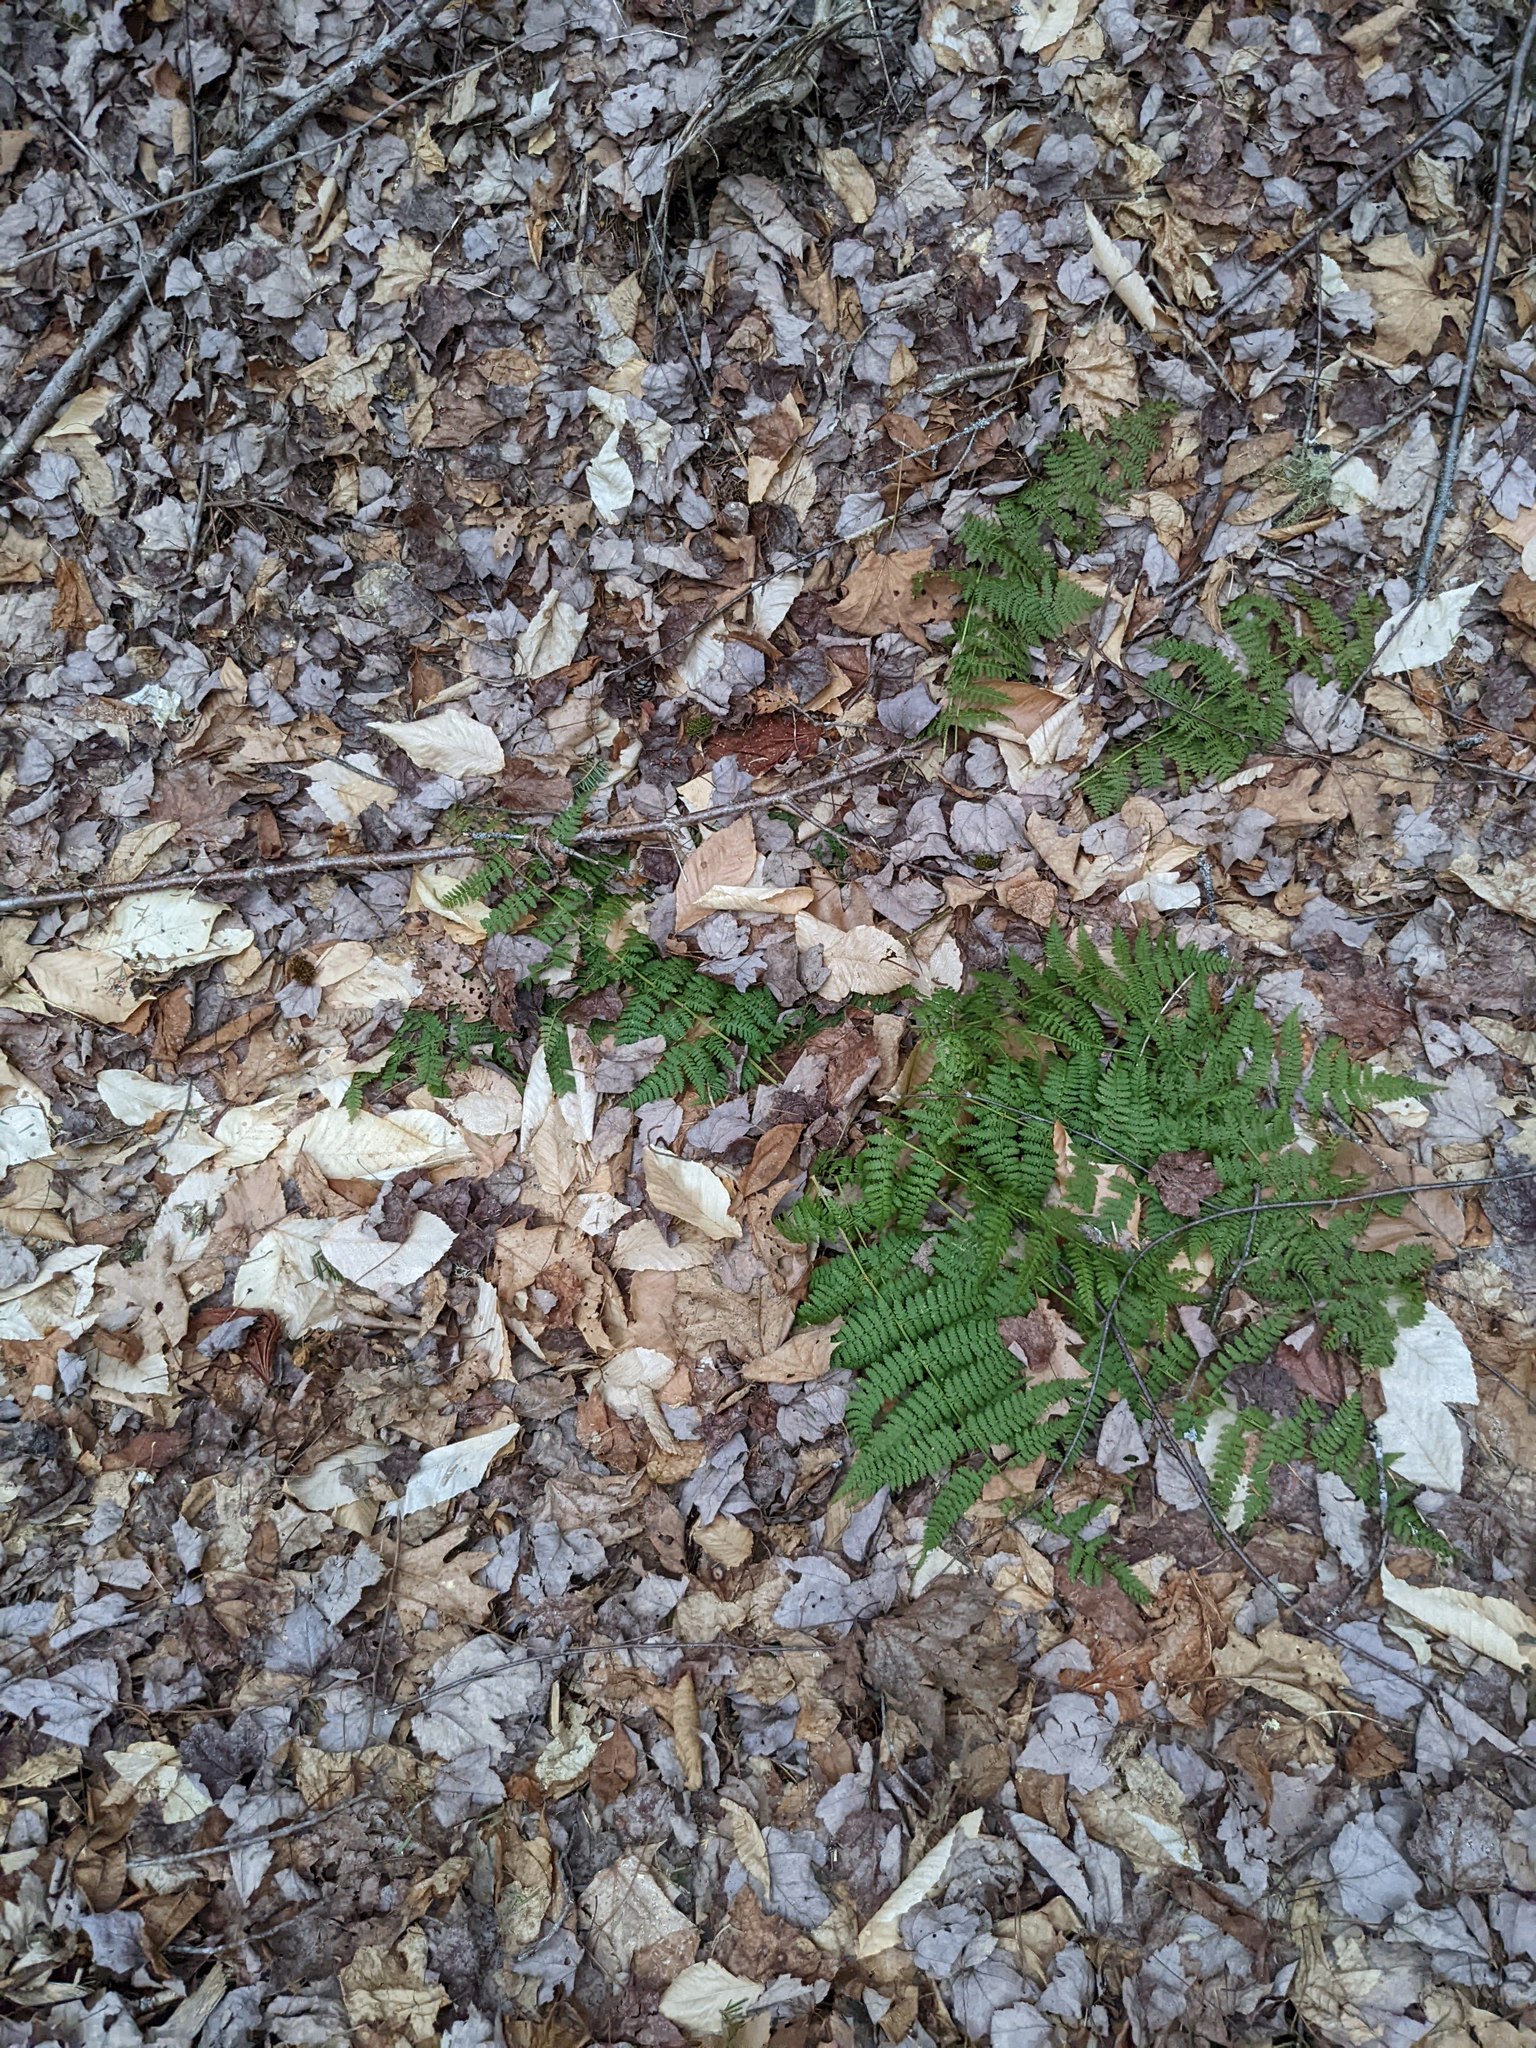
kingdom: Plantae
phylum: Tracheophyta
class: Polypodiopsida
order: Polypodiales
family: Dryopteridaceae
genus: Dryopteris
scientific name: Dryopteris intermedia
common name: Evergreen wood fern
